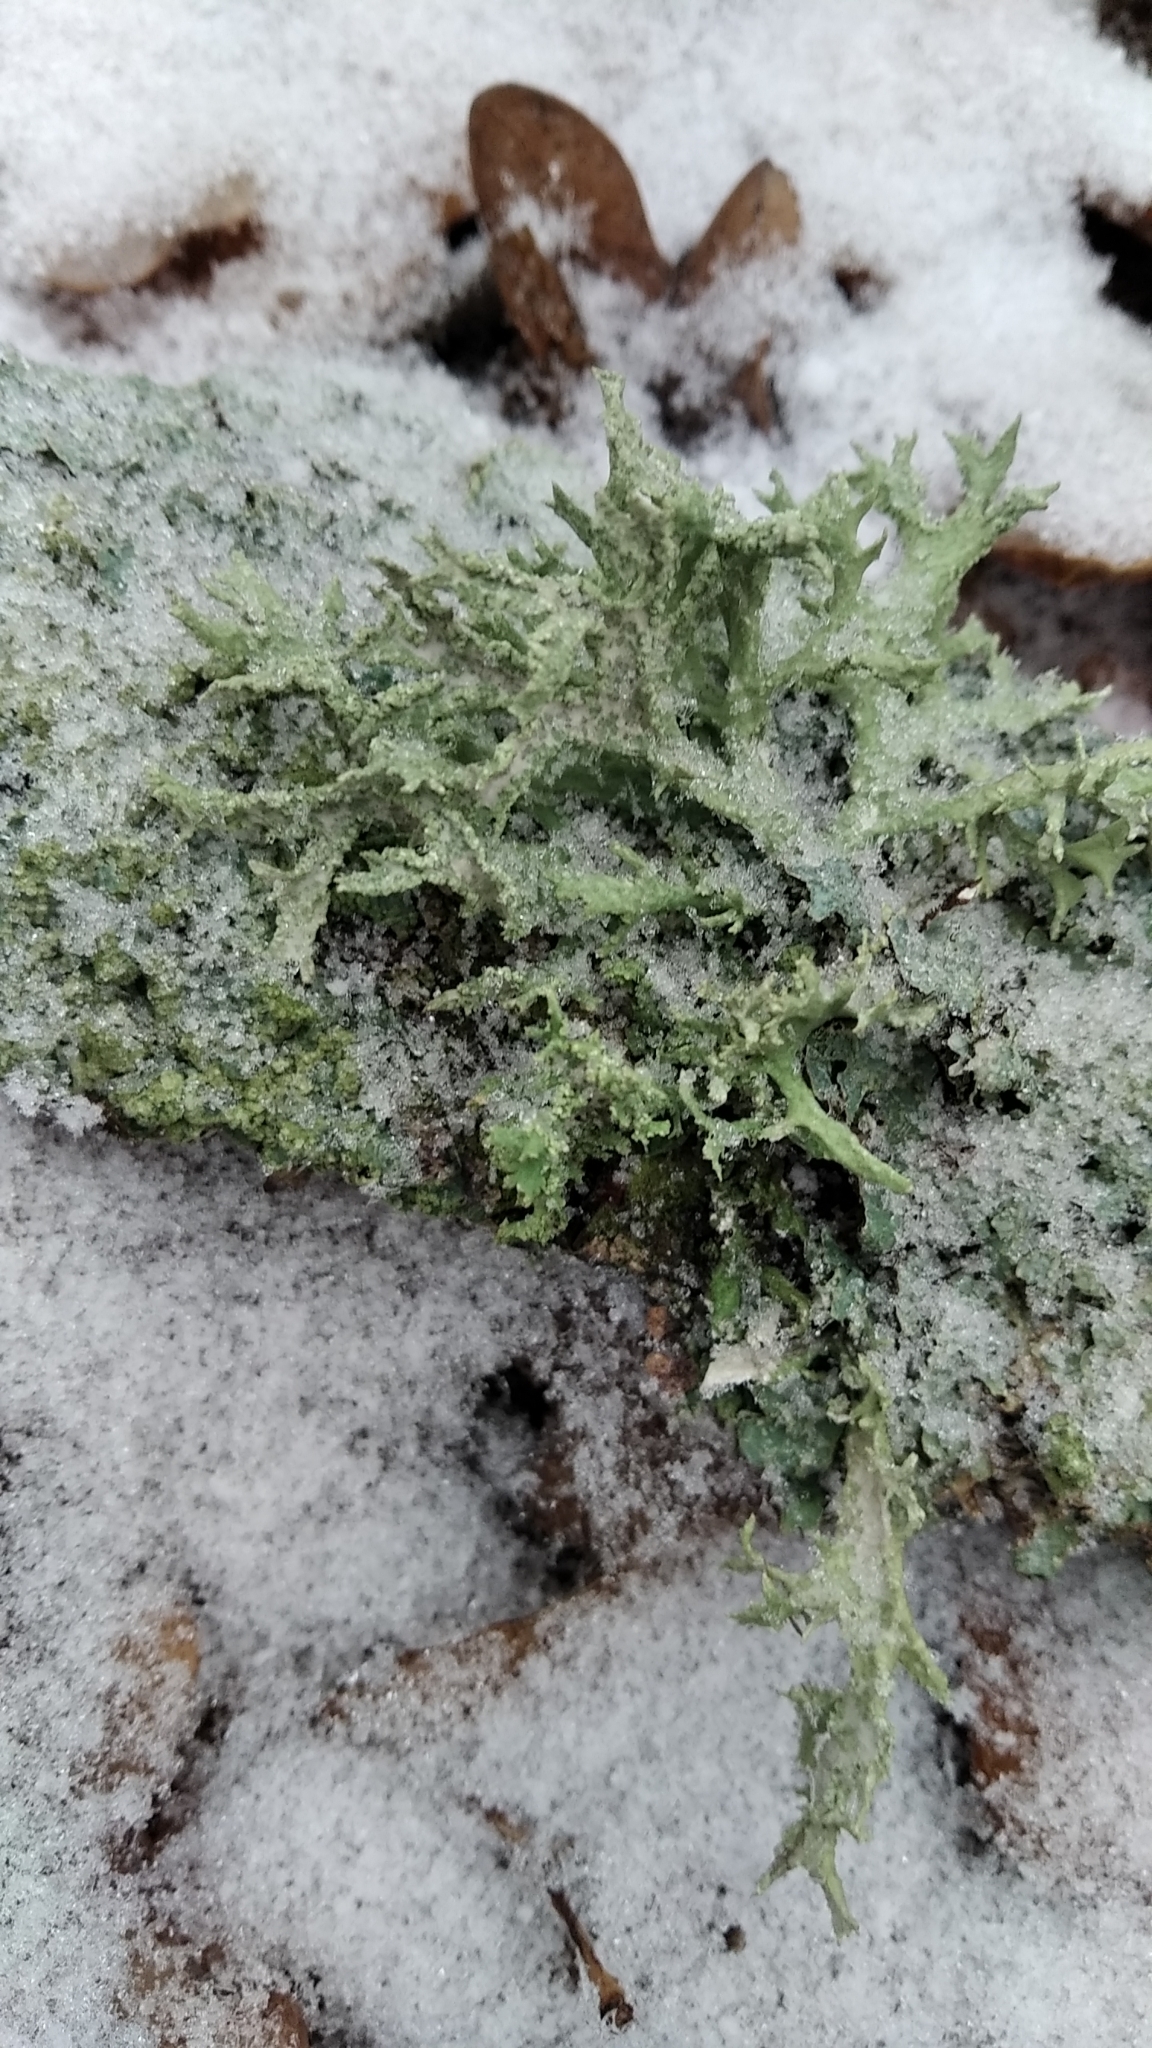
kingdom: Fungi
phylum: Ascomycota
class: Lecanoromycetes
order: Lecanorales
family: Parmeliaceae
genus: Evernia
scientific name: Evernia prunastri
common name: Oak moss
